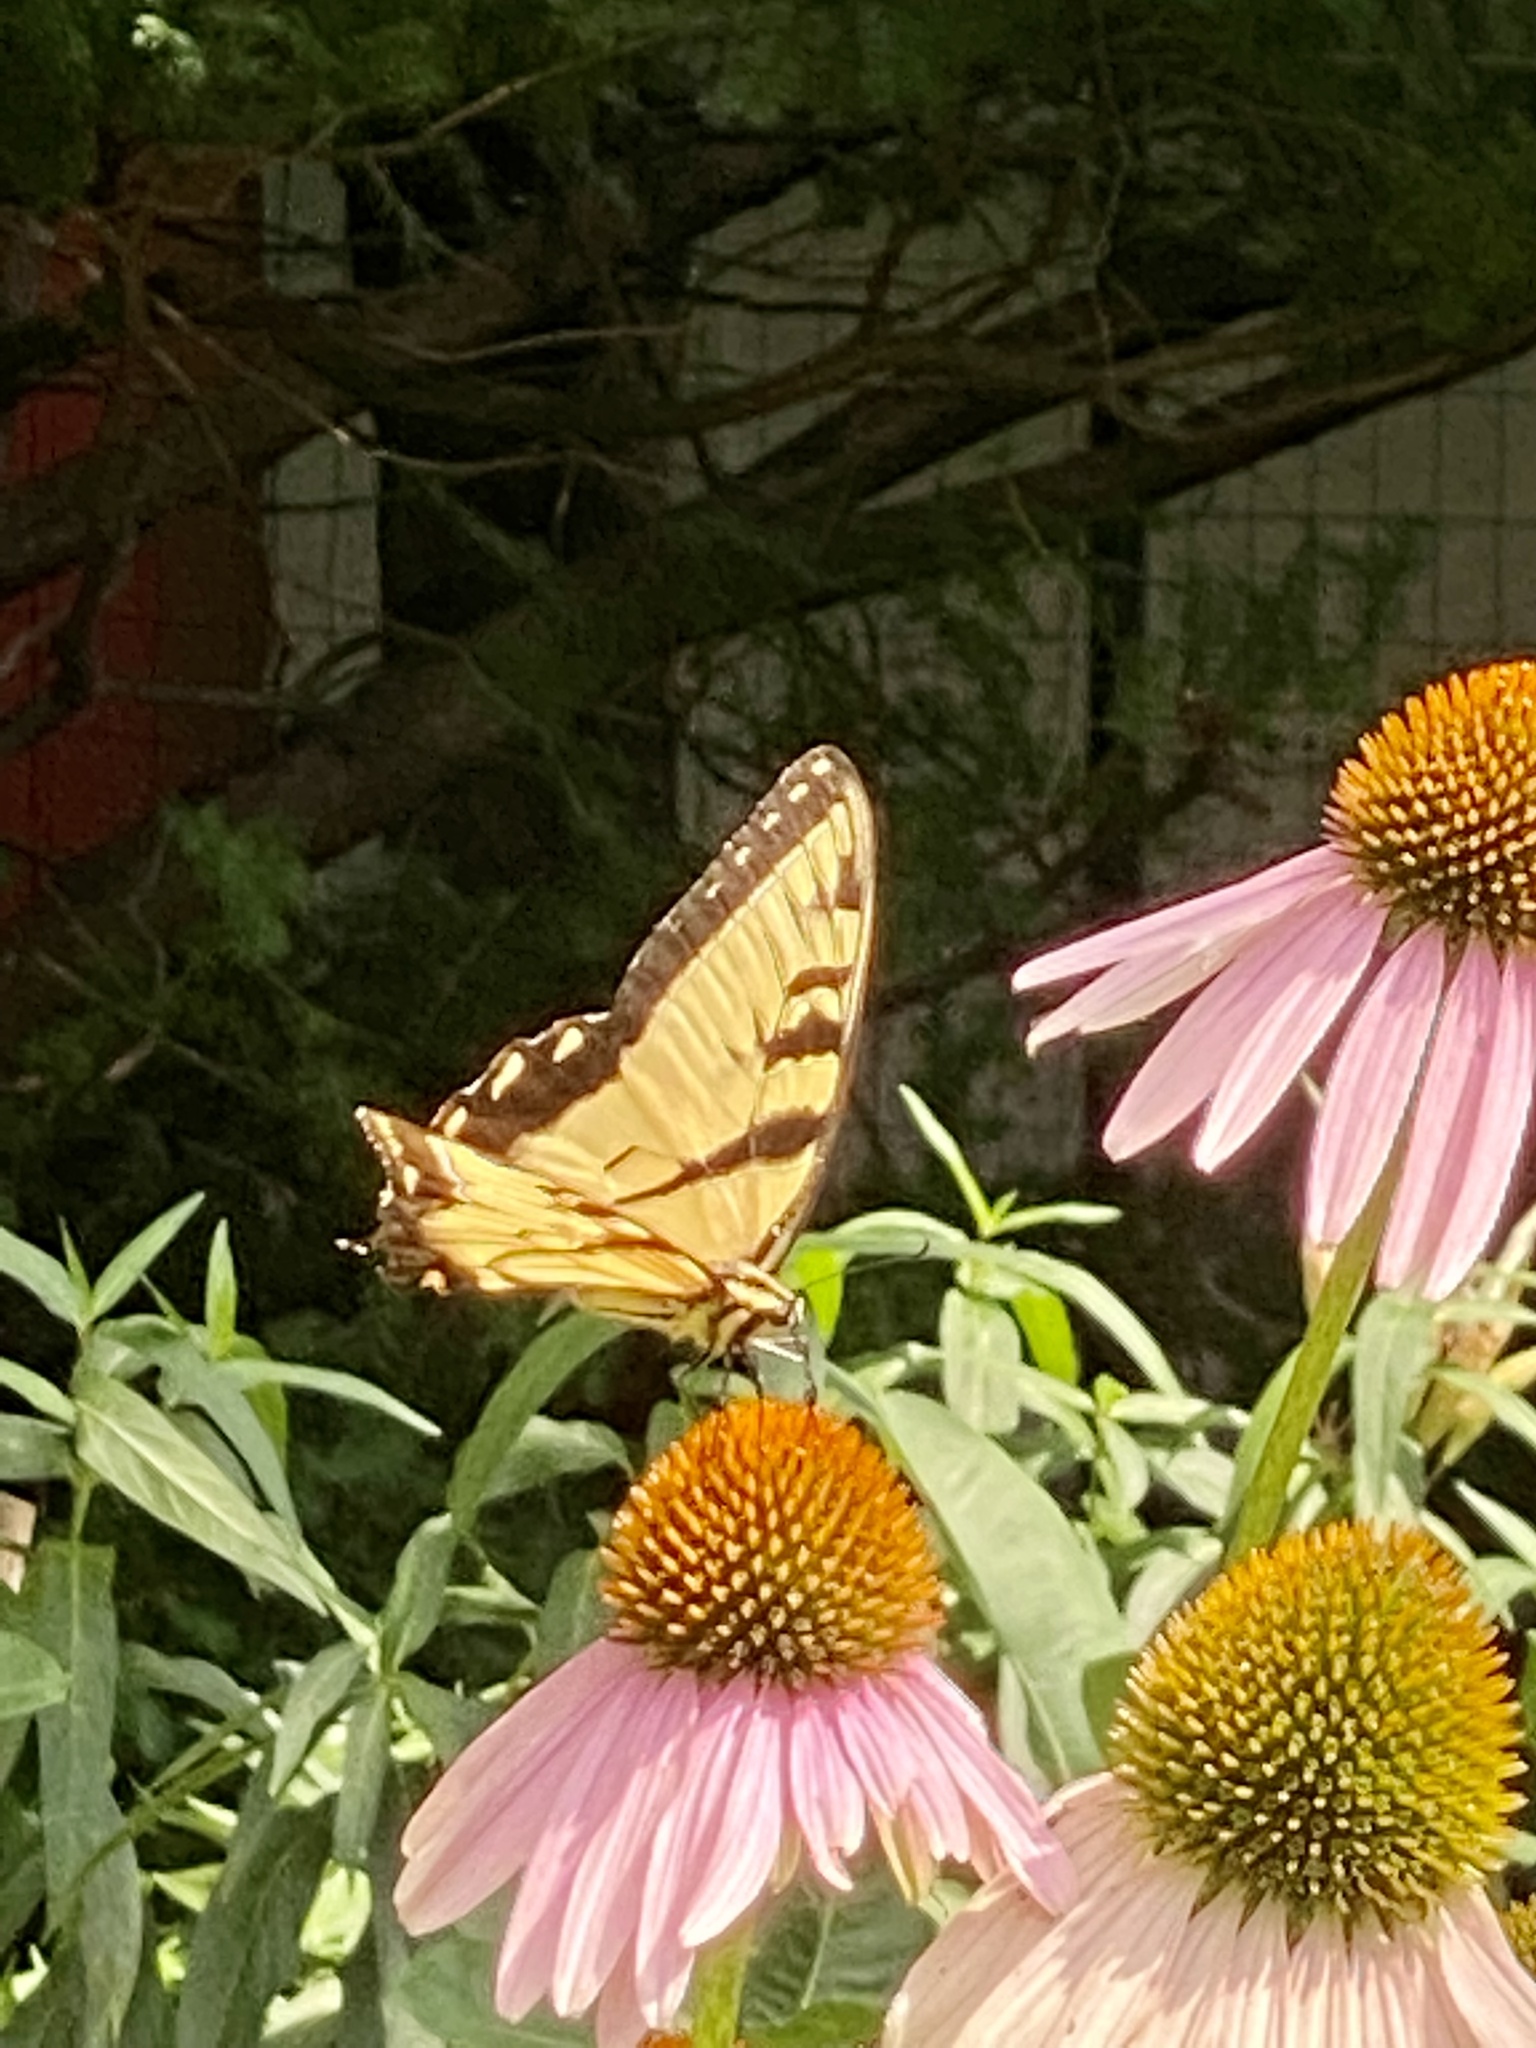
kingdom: Animalia
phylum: Arthropoda
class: Insecta
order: Lepidoptera
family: Papilionidae
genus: Papilio
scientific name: Papilio glaucus
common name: Tiger swallowtail
